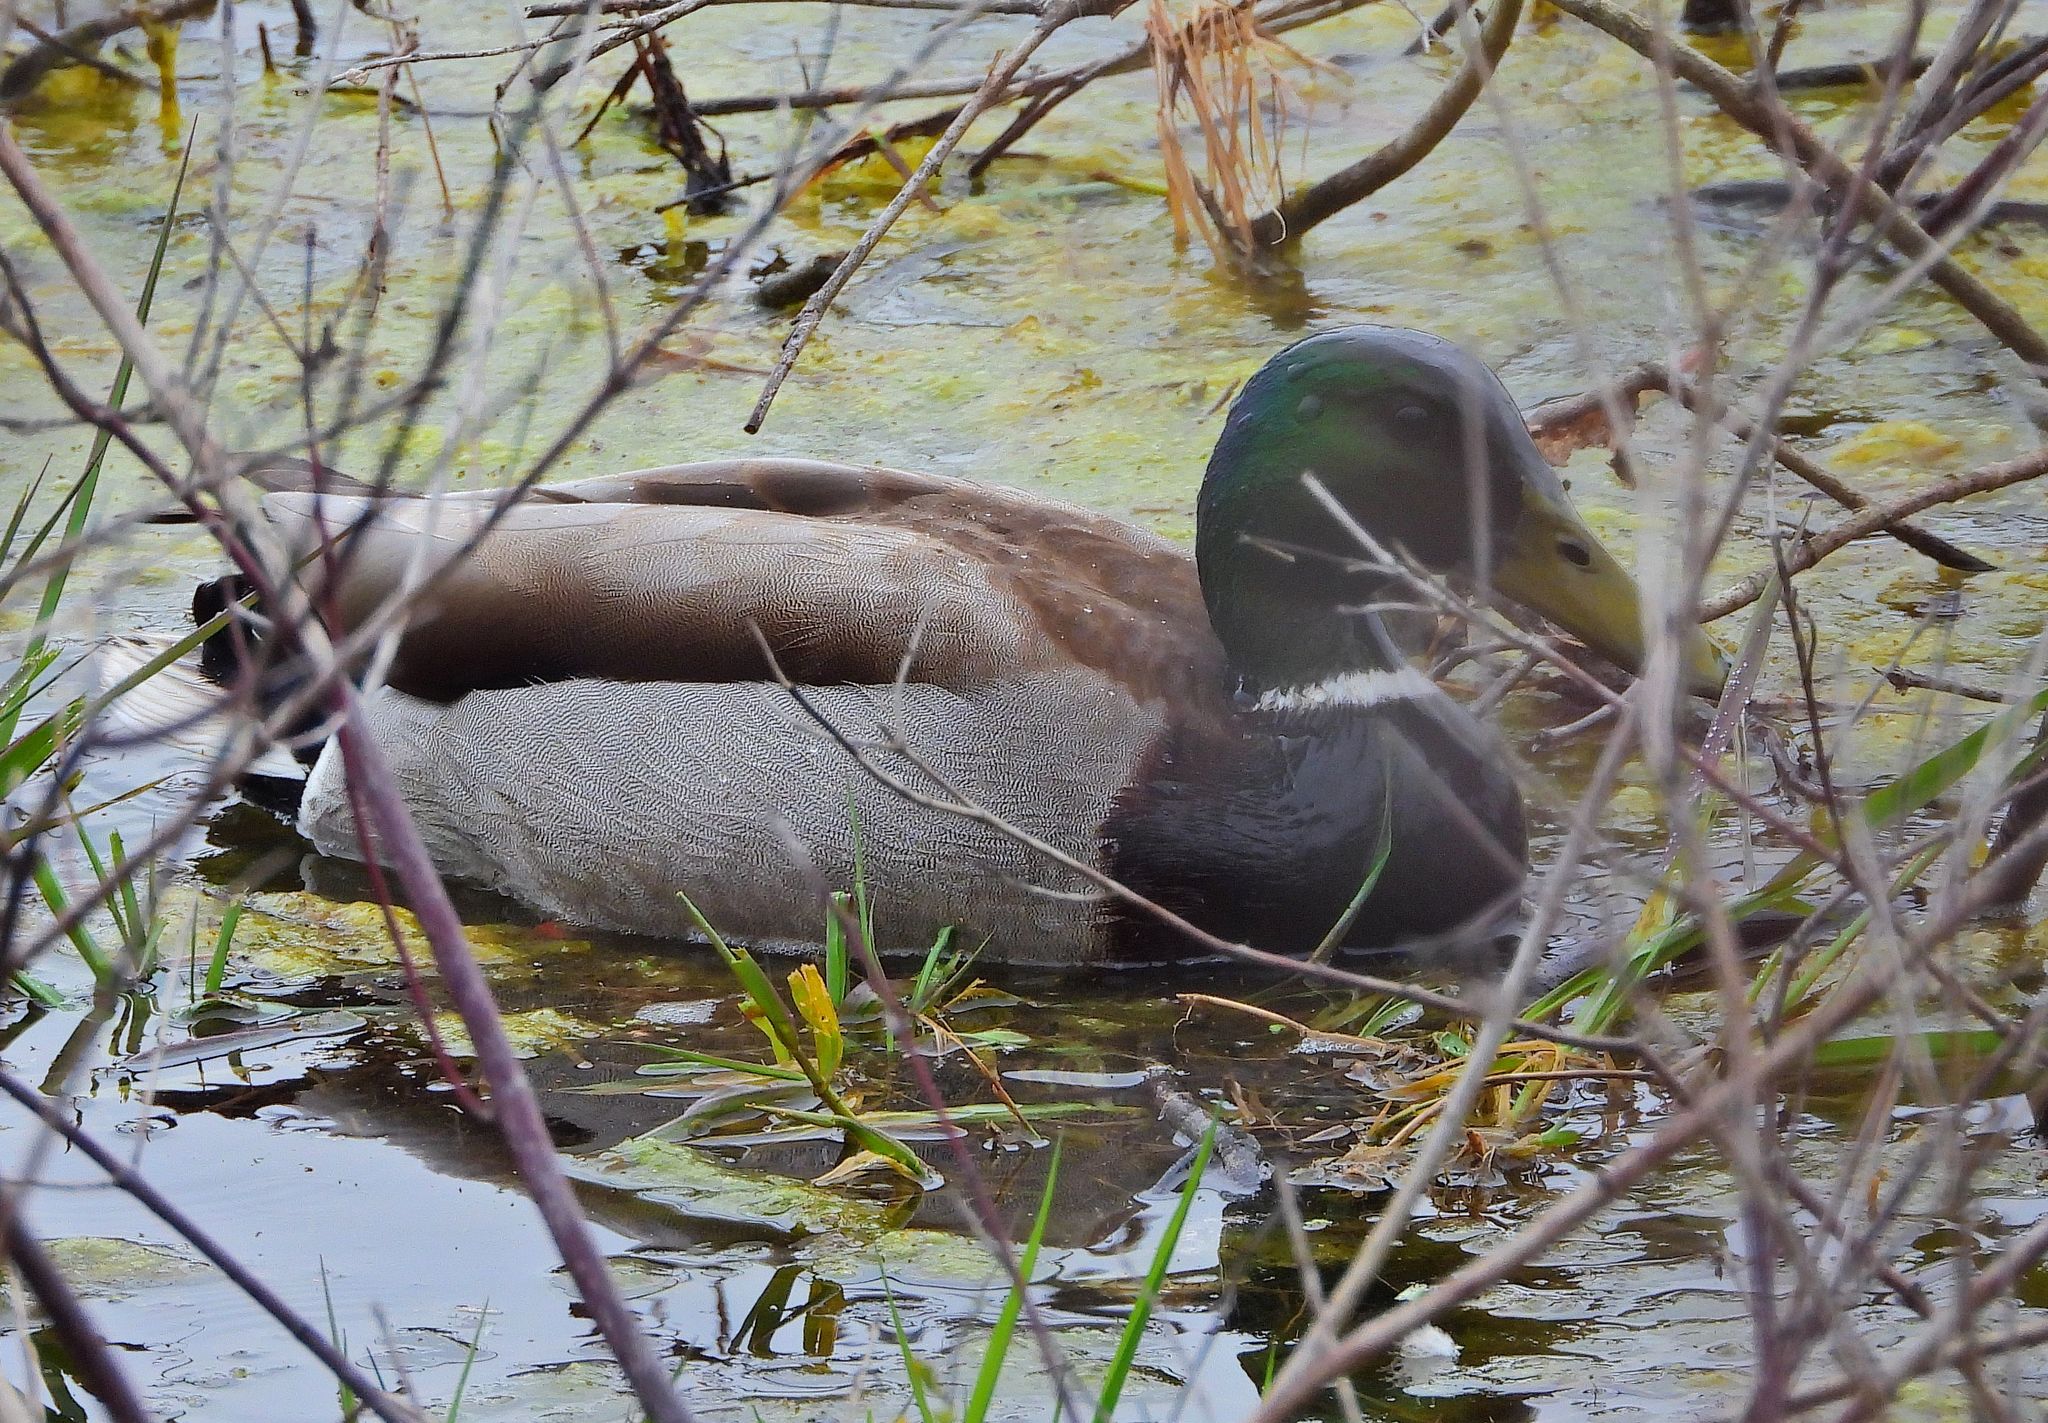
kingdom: Animalia
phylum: Chordata
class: Aves
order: Anseriformes
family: Anatidae
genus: Anas
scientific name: Anas platyrhynchos
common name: Mallard
